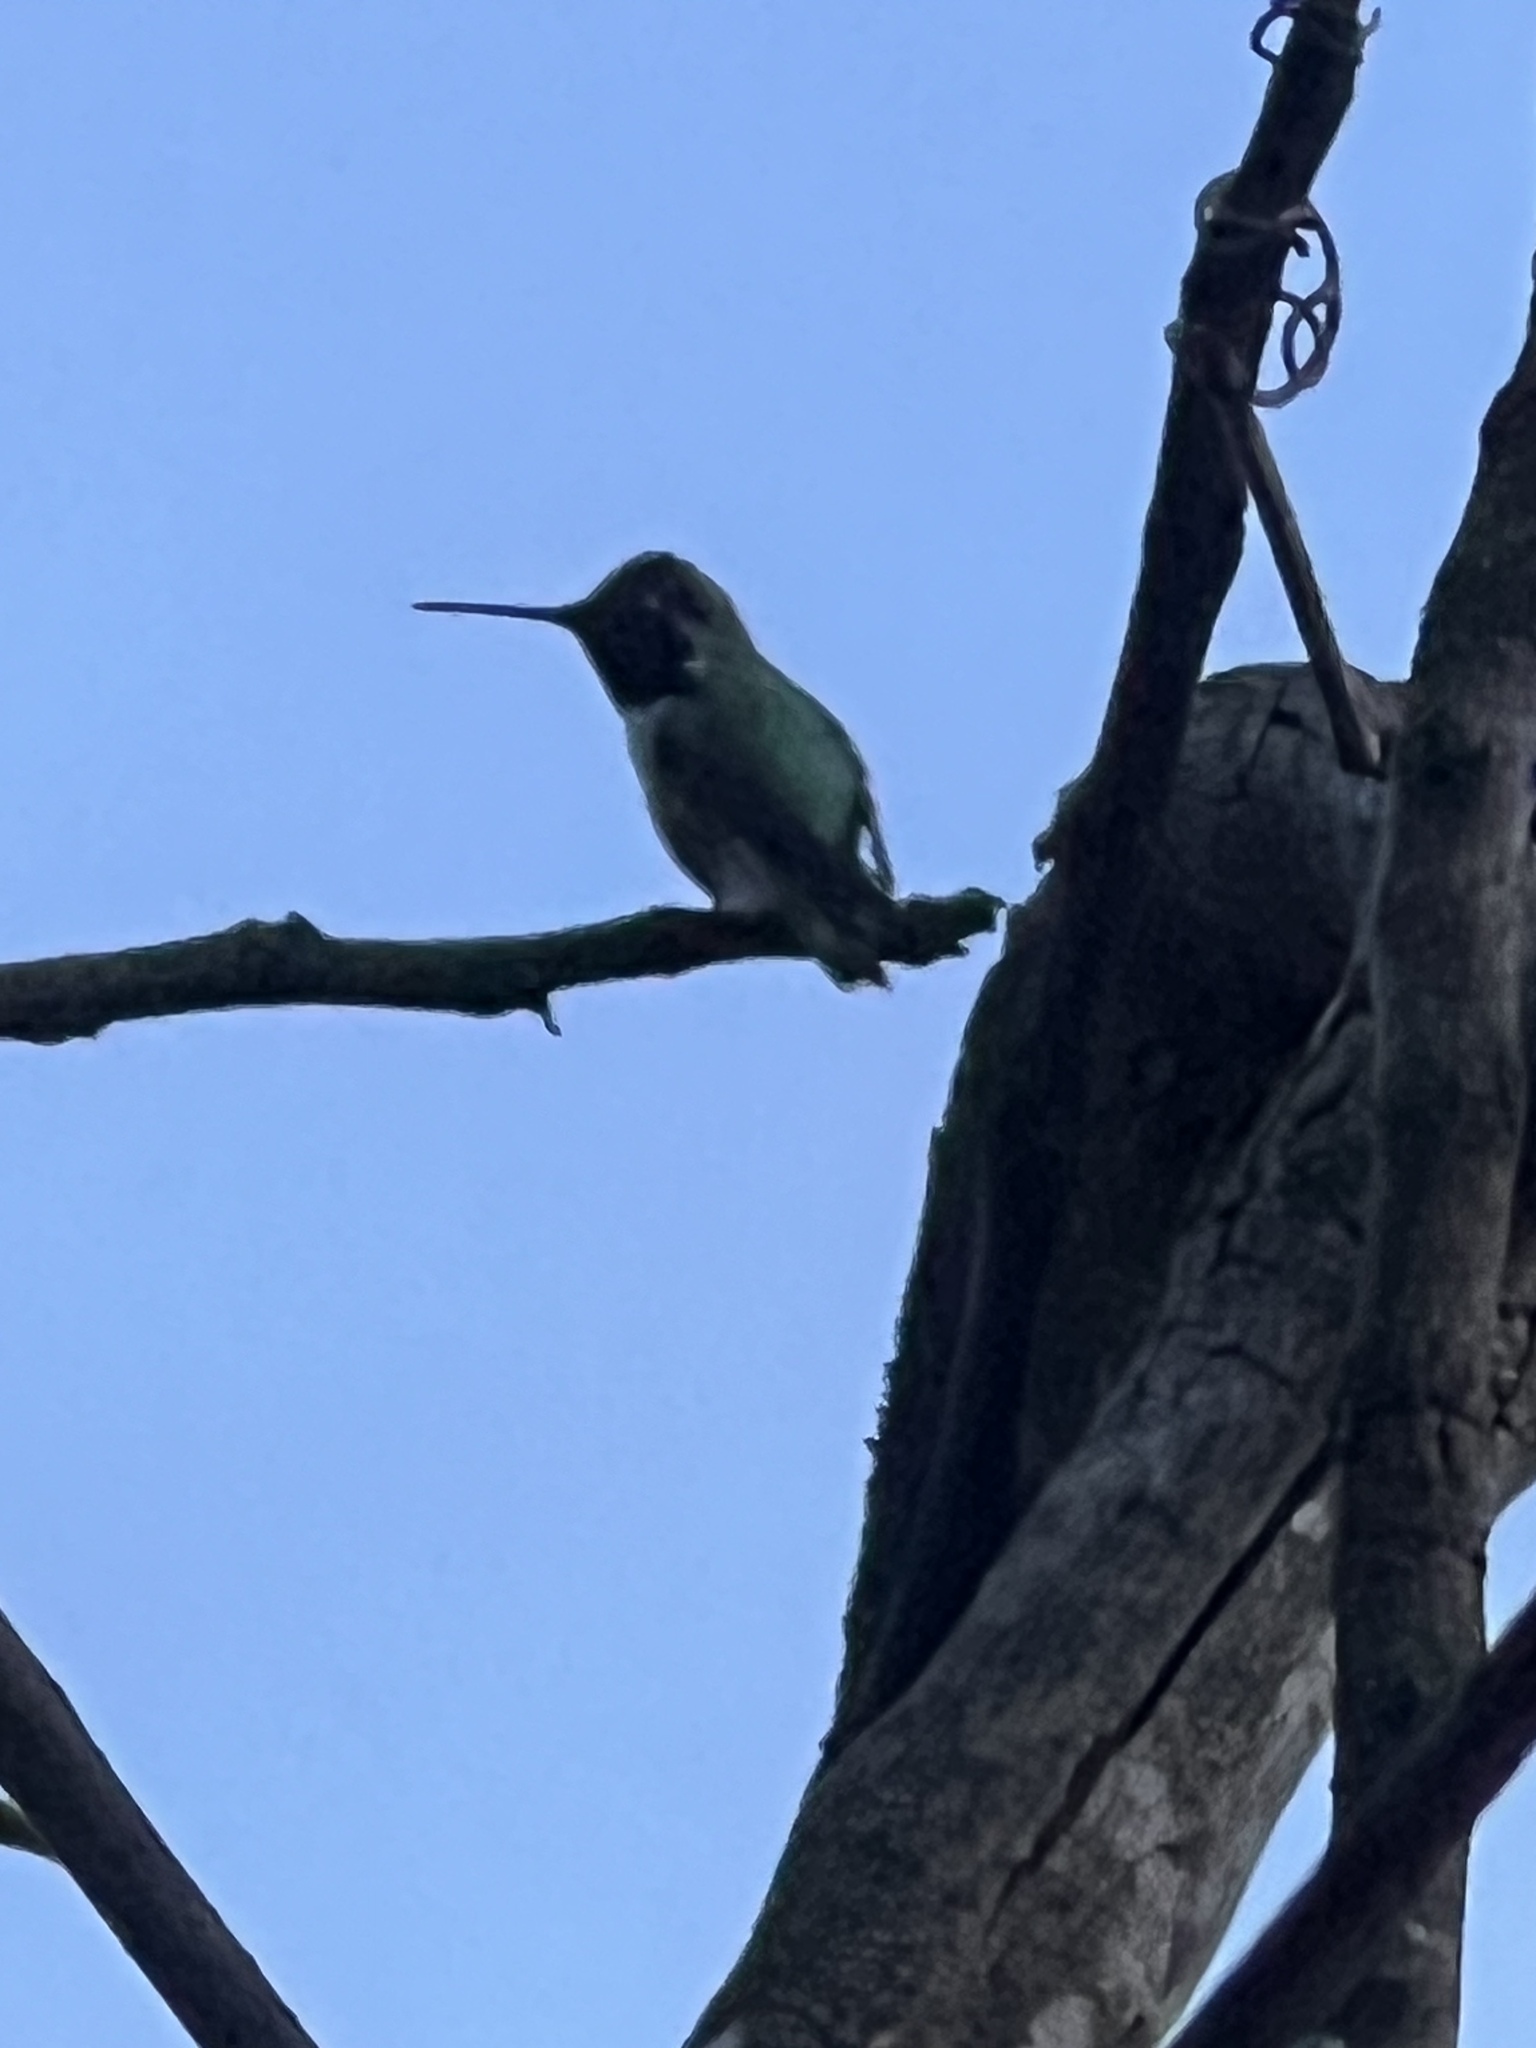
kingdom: Animalia
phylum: Chordata
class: Aves
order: Apodiformes
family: Trochilidae
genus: Calypte
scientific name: Calypte anna
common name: Anna's hummingbird
